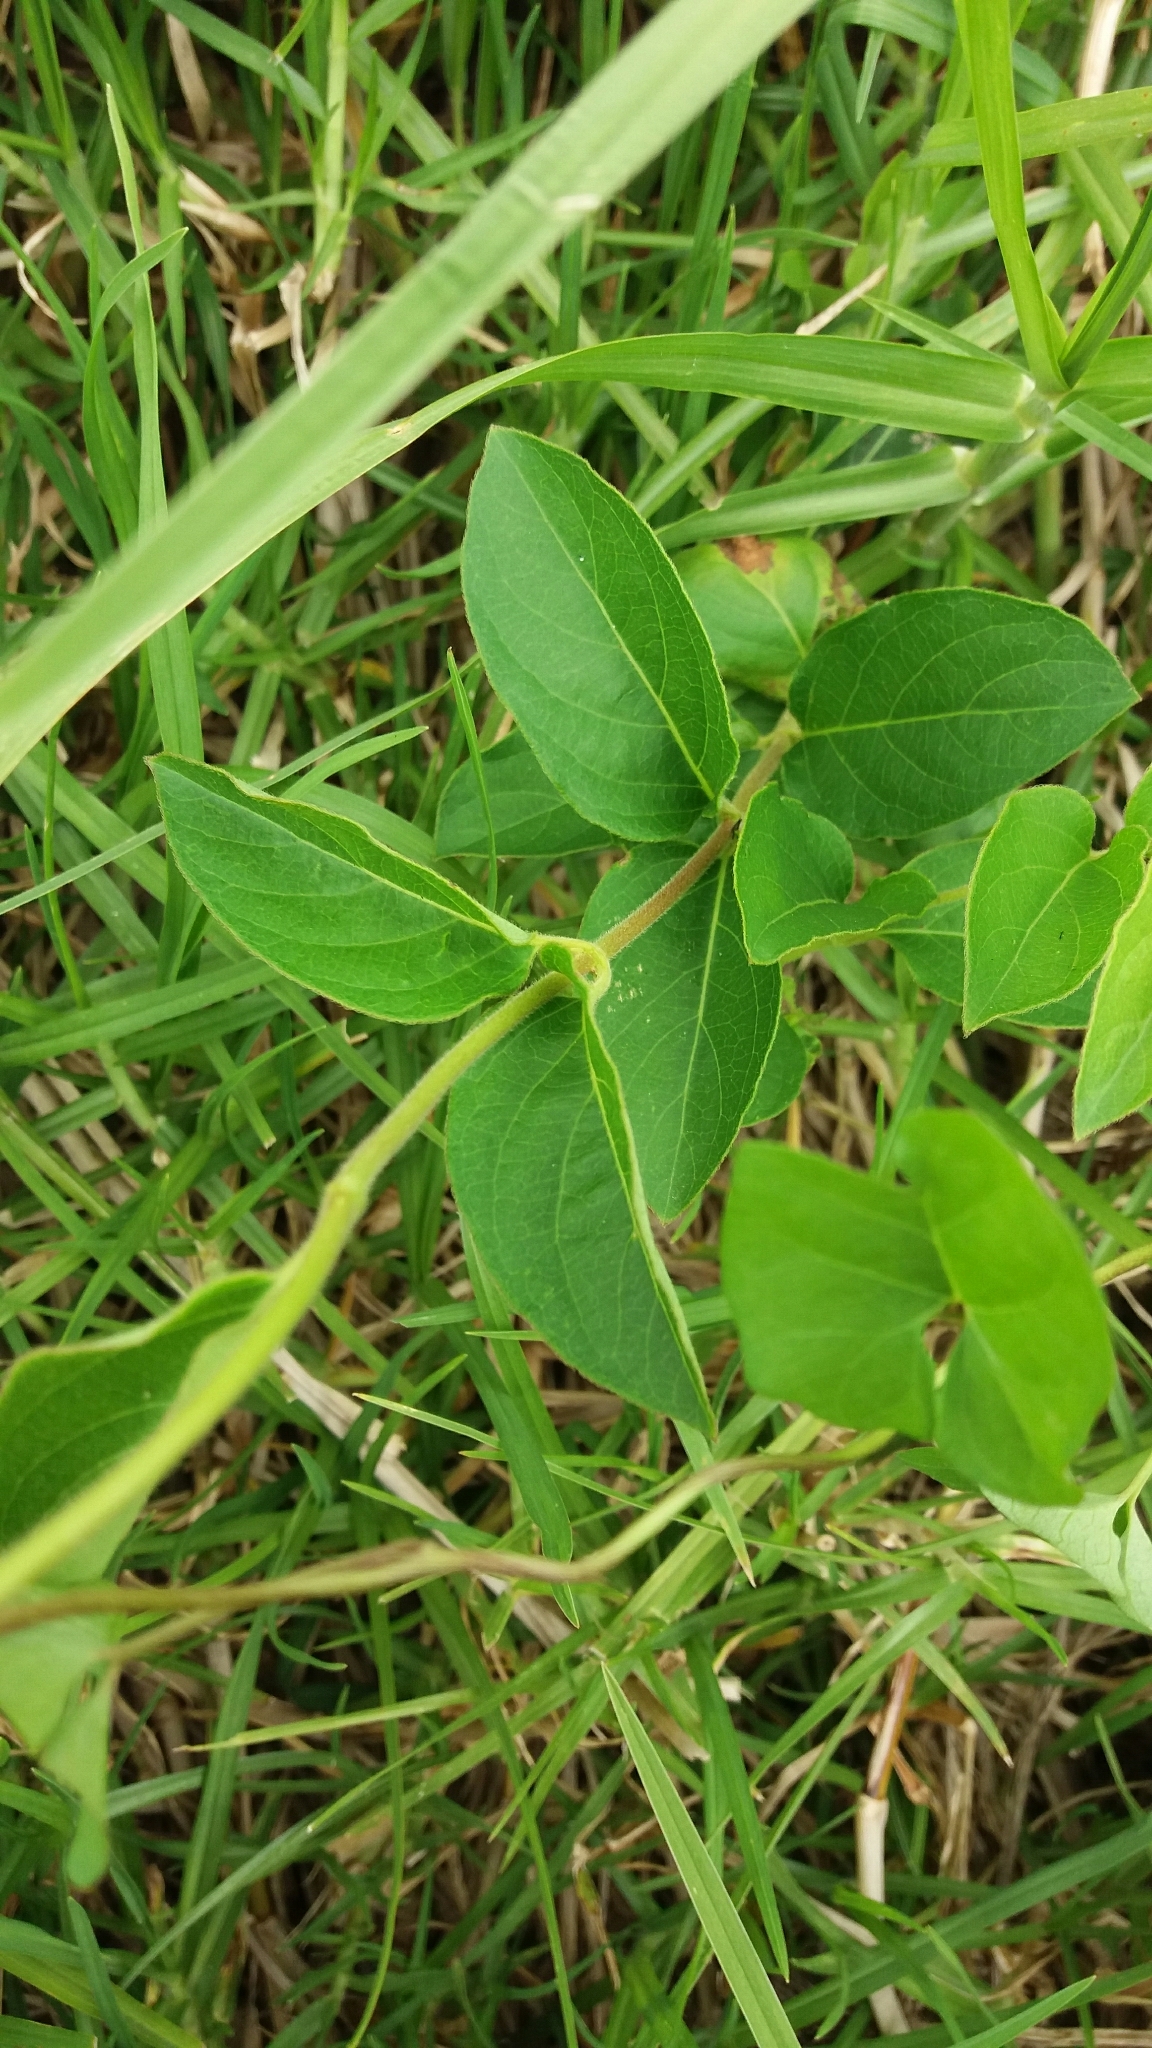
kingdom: Plantae
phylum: Tracheophyta
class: Magnoliopsida
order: Dipsacales
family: Caprifoliaceae
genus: Lonicera
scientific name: Lonicera japonica
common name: Japanese honeysuckle
